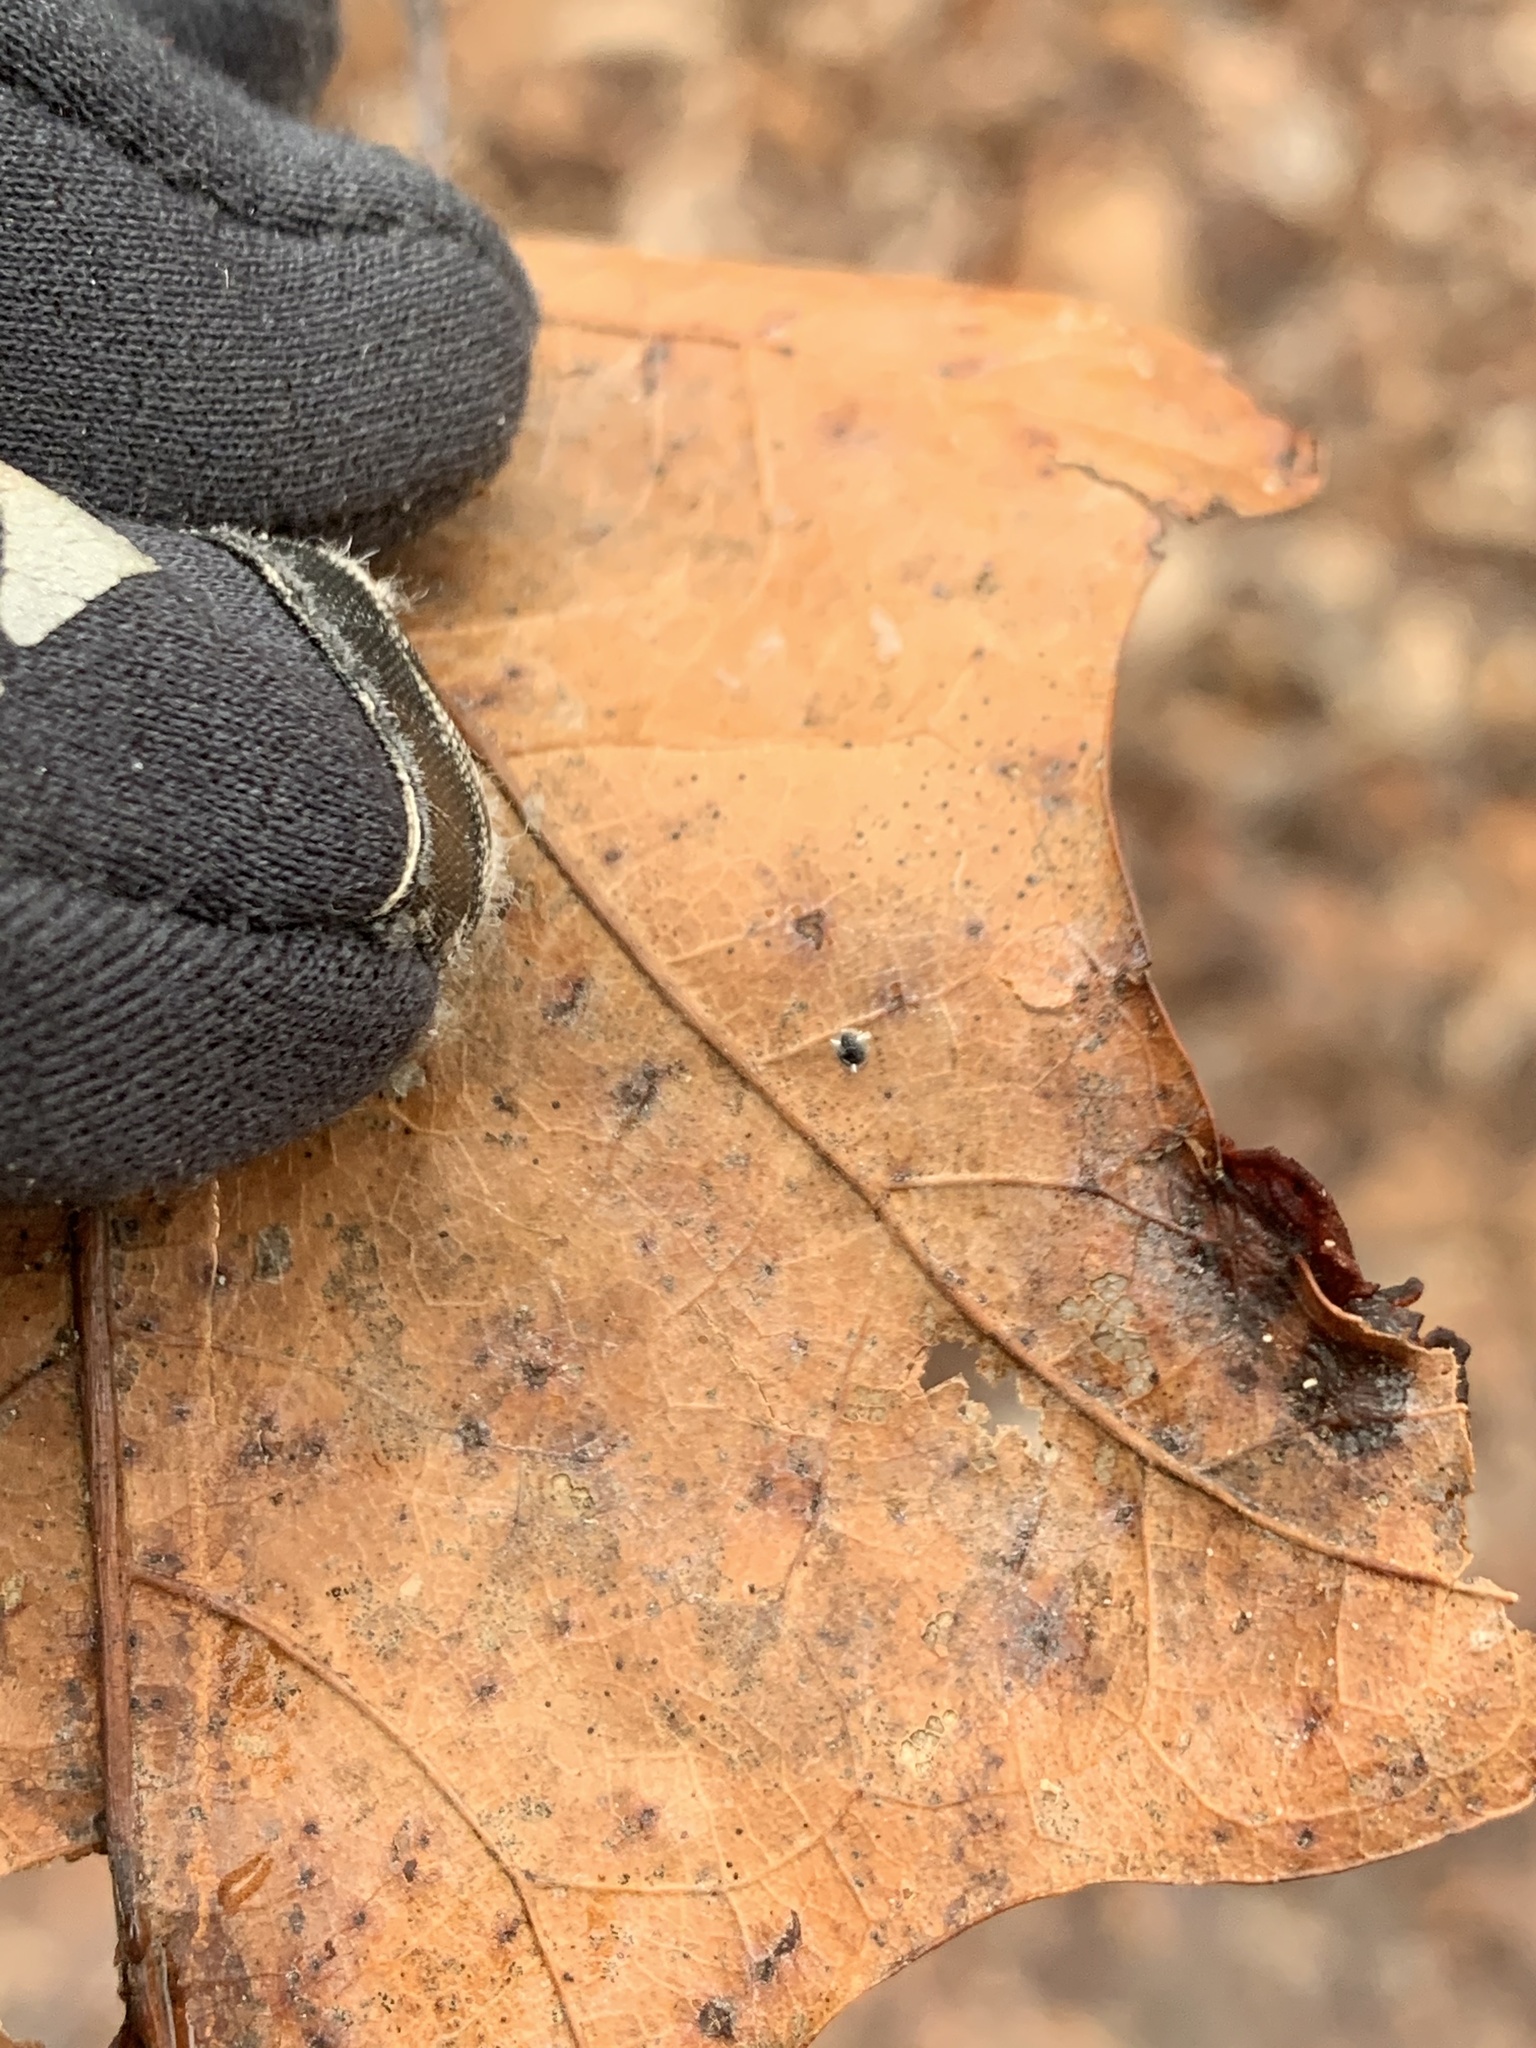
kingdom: Animalia
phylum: Arthropoda
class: Insecta
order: Diptera
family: Cecidomyiidae
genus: Polystepha
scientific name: Polystepha pilulae
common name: Oak leaf gall midge
